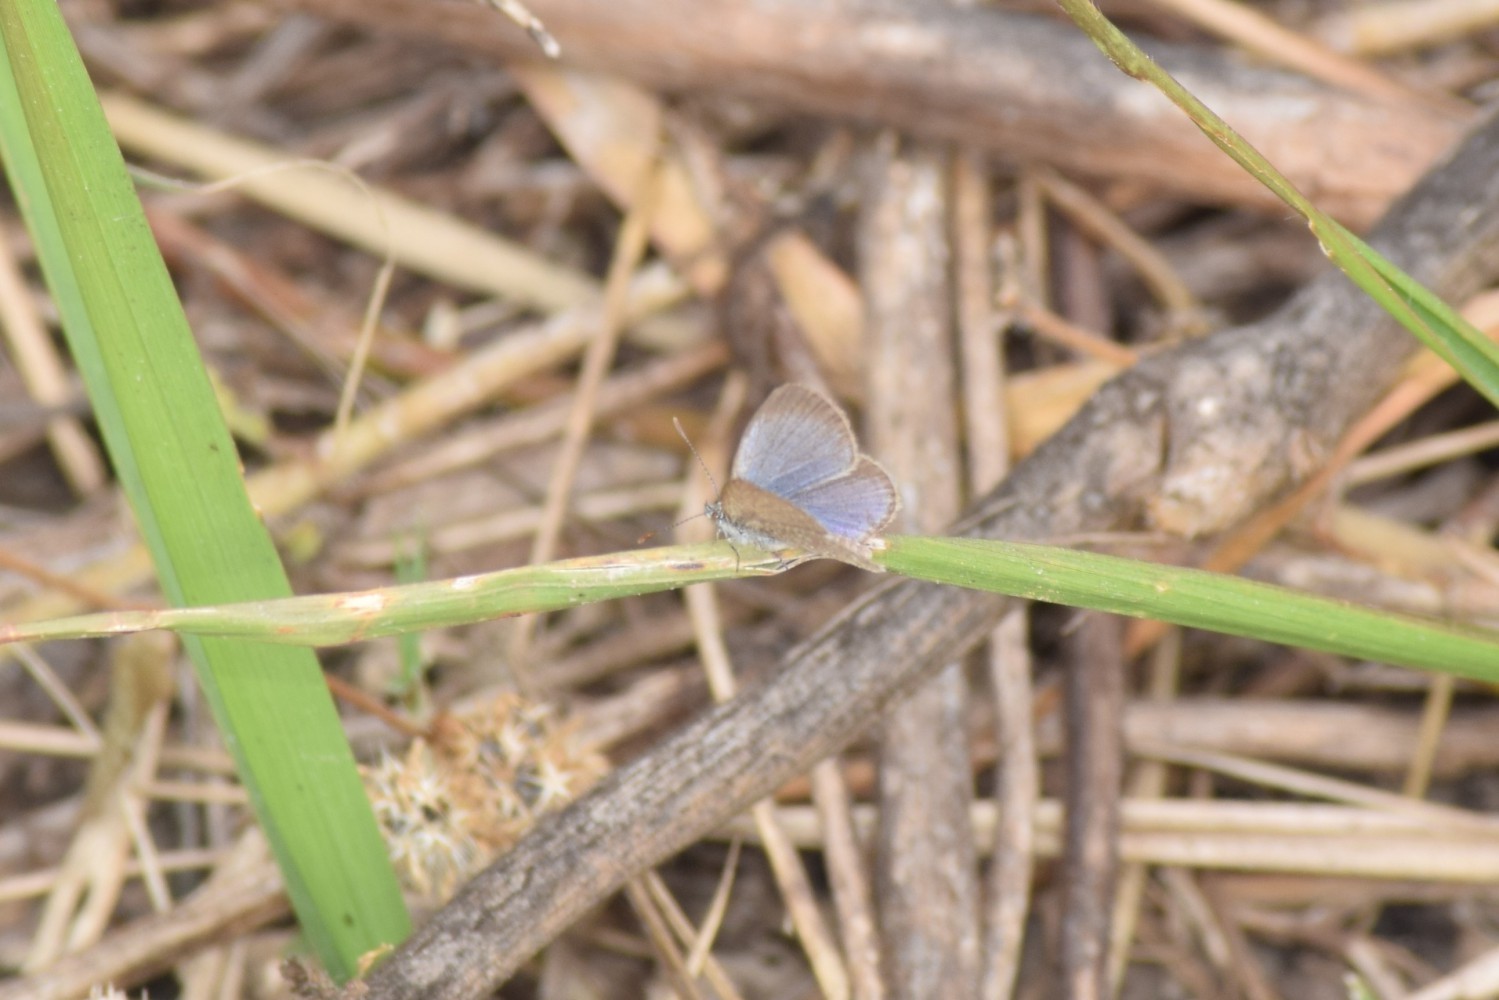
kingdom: Animalia
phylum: Arthropoda
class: Insecta
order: Lepidoptera
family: Lycaenidae
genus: Zizina
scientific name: Zizina otis
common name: Lesser grass blue
